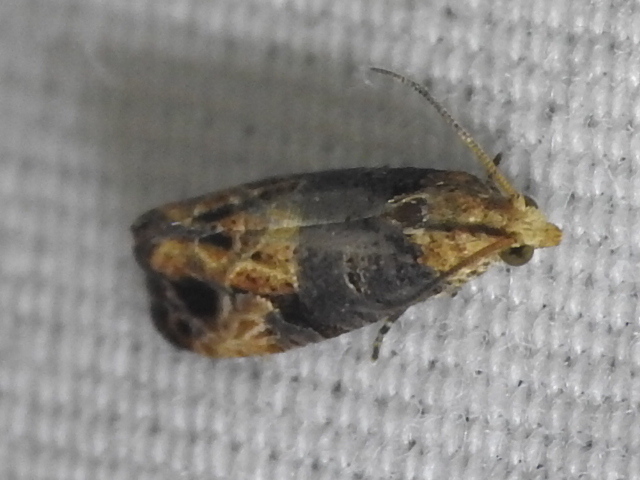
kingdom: Animalia
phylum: Arthropoda
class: Insecta
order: Lepidoptera
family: Tortricidae
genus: Paralobesia
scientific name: Paralobesia viteana
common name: Grape berry moth
